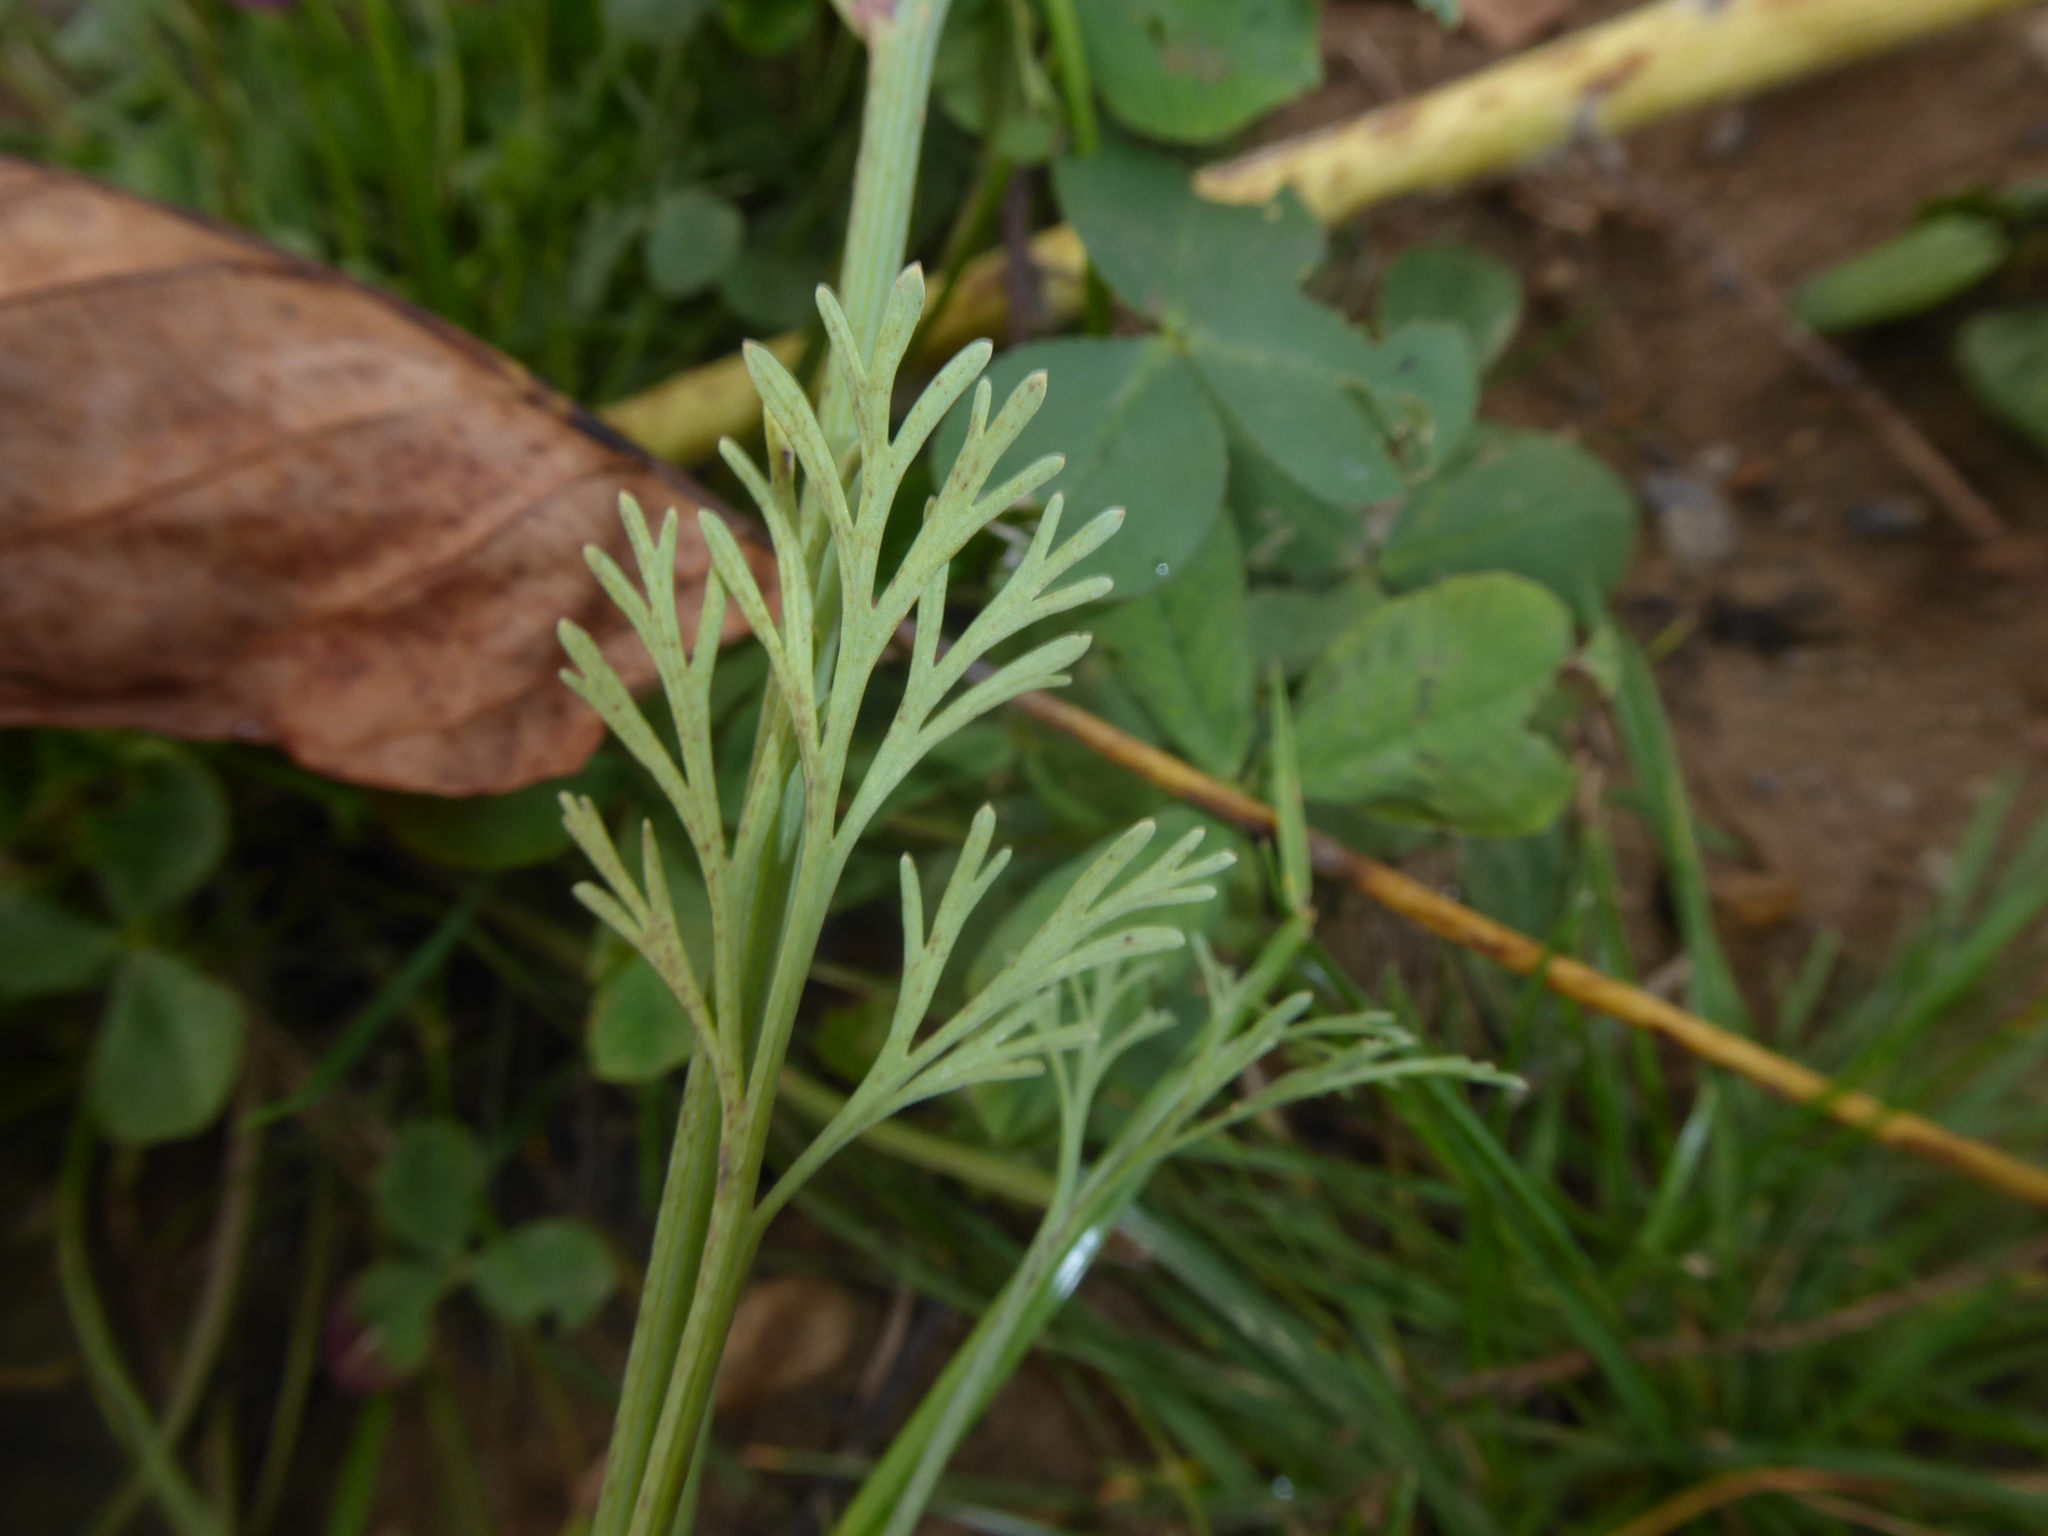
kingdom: Plantae
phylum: Tracheophyta
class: Magnoliopsida
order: Ranunculales
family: Papaveraceae
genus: Eschscholzia
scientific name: Eschscholzia californica
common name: California poppy
